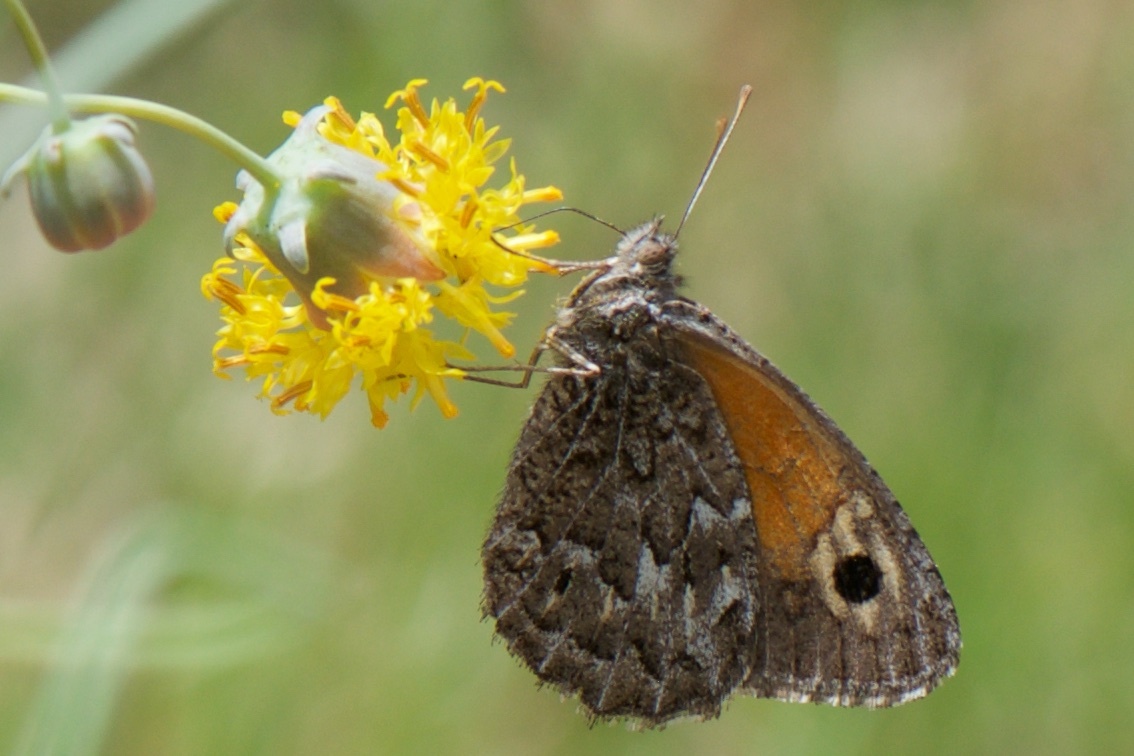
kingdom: Animalia
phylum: Arthropoda
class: Insecta
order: Lepidoptera
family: Nymphalidae
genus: Argyrophorus
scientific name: Argyrophorus
